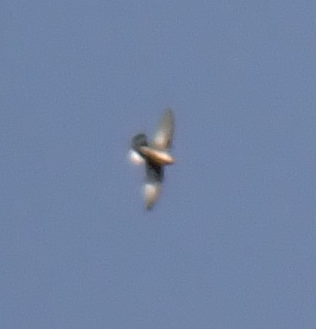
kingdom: Animalia
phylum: Chordata
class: Aves
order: Passeriformes
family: Hirundinidae
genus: Ptyonoprogne
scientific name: Ptyonoprogne rupestris
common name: Eurasian crag martin
